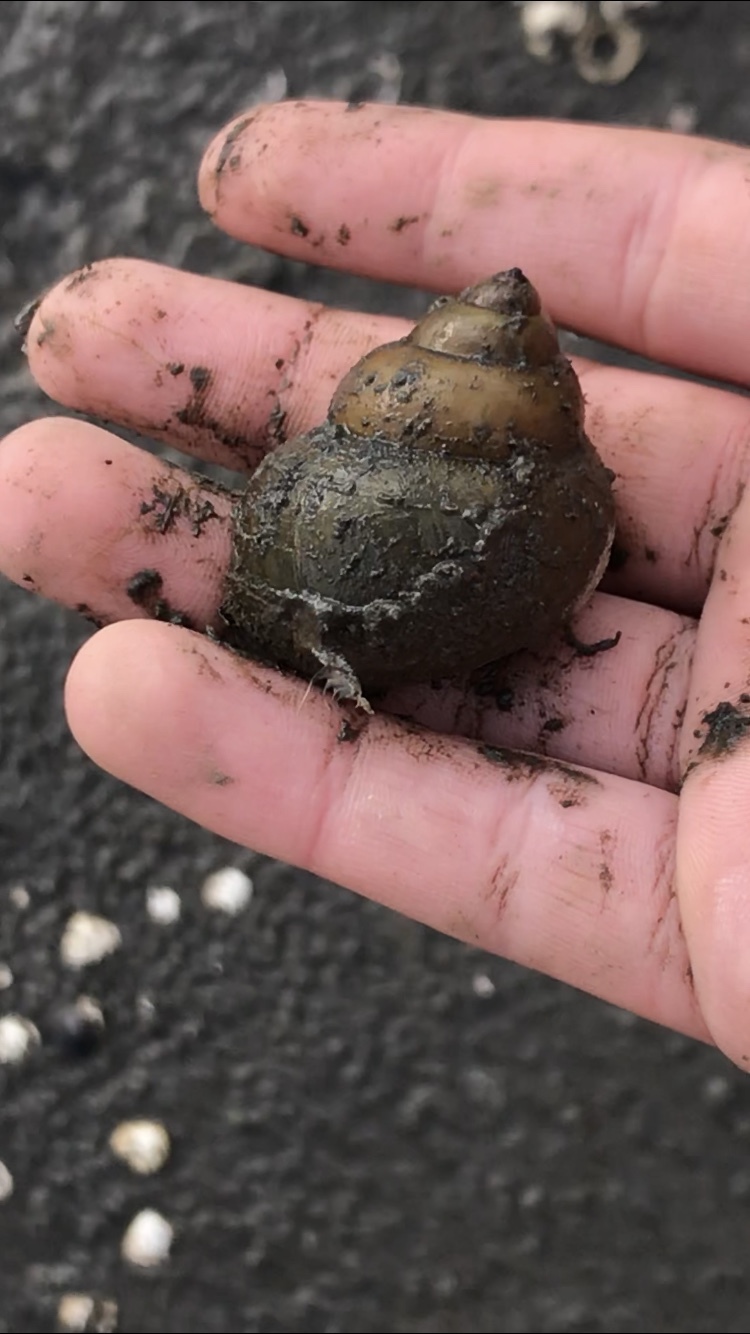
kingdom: Animalia
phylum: Mollusca
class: Gastropoda
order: Architaenioglossa
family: Viviparidae
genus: Cipangopaludina
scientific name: Cipangopaludina chinensis
